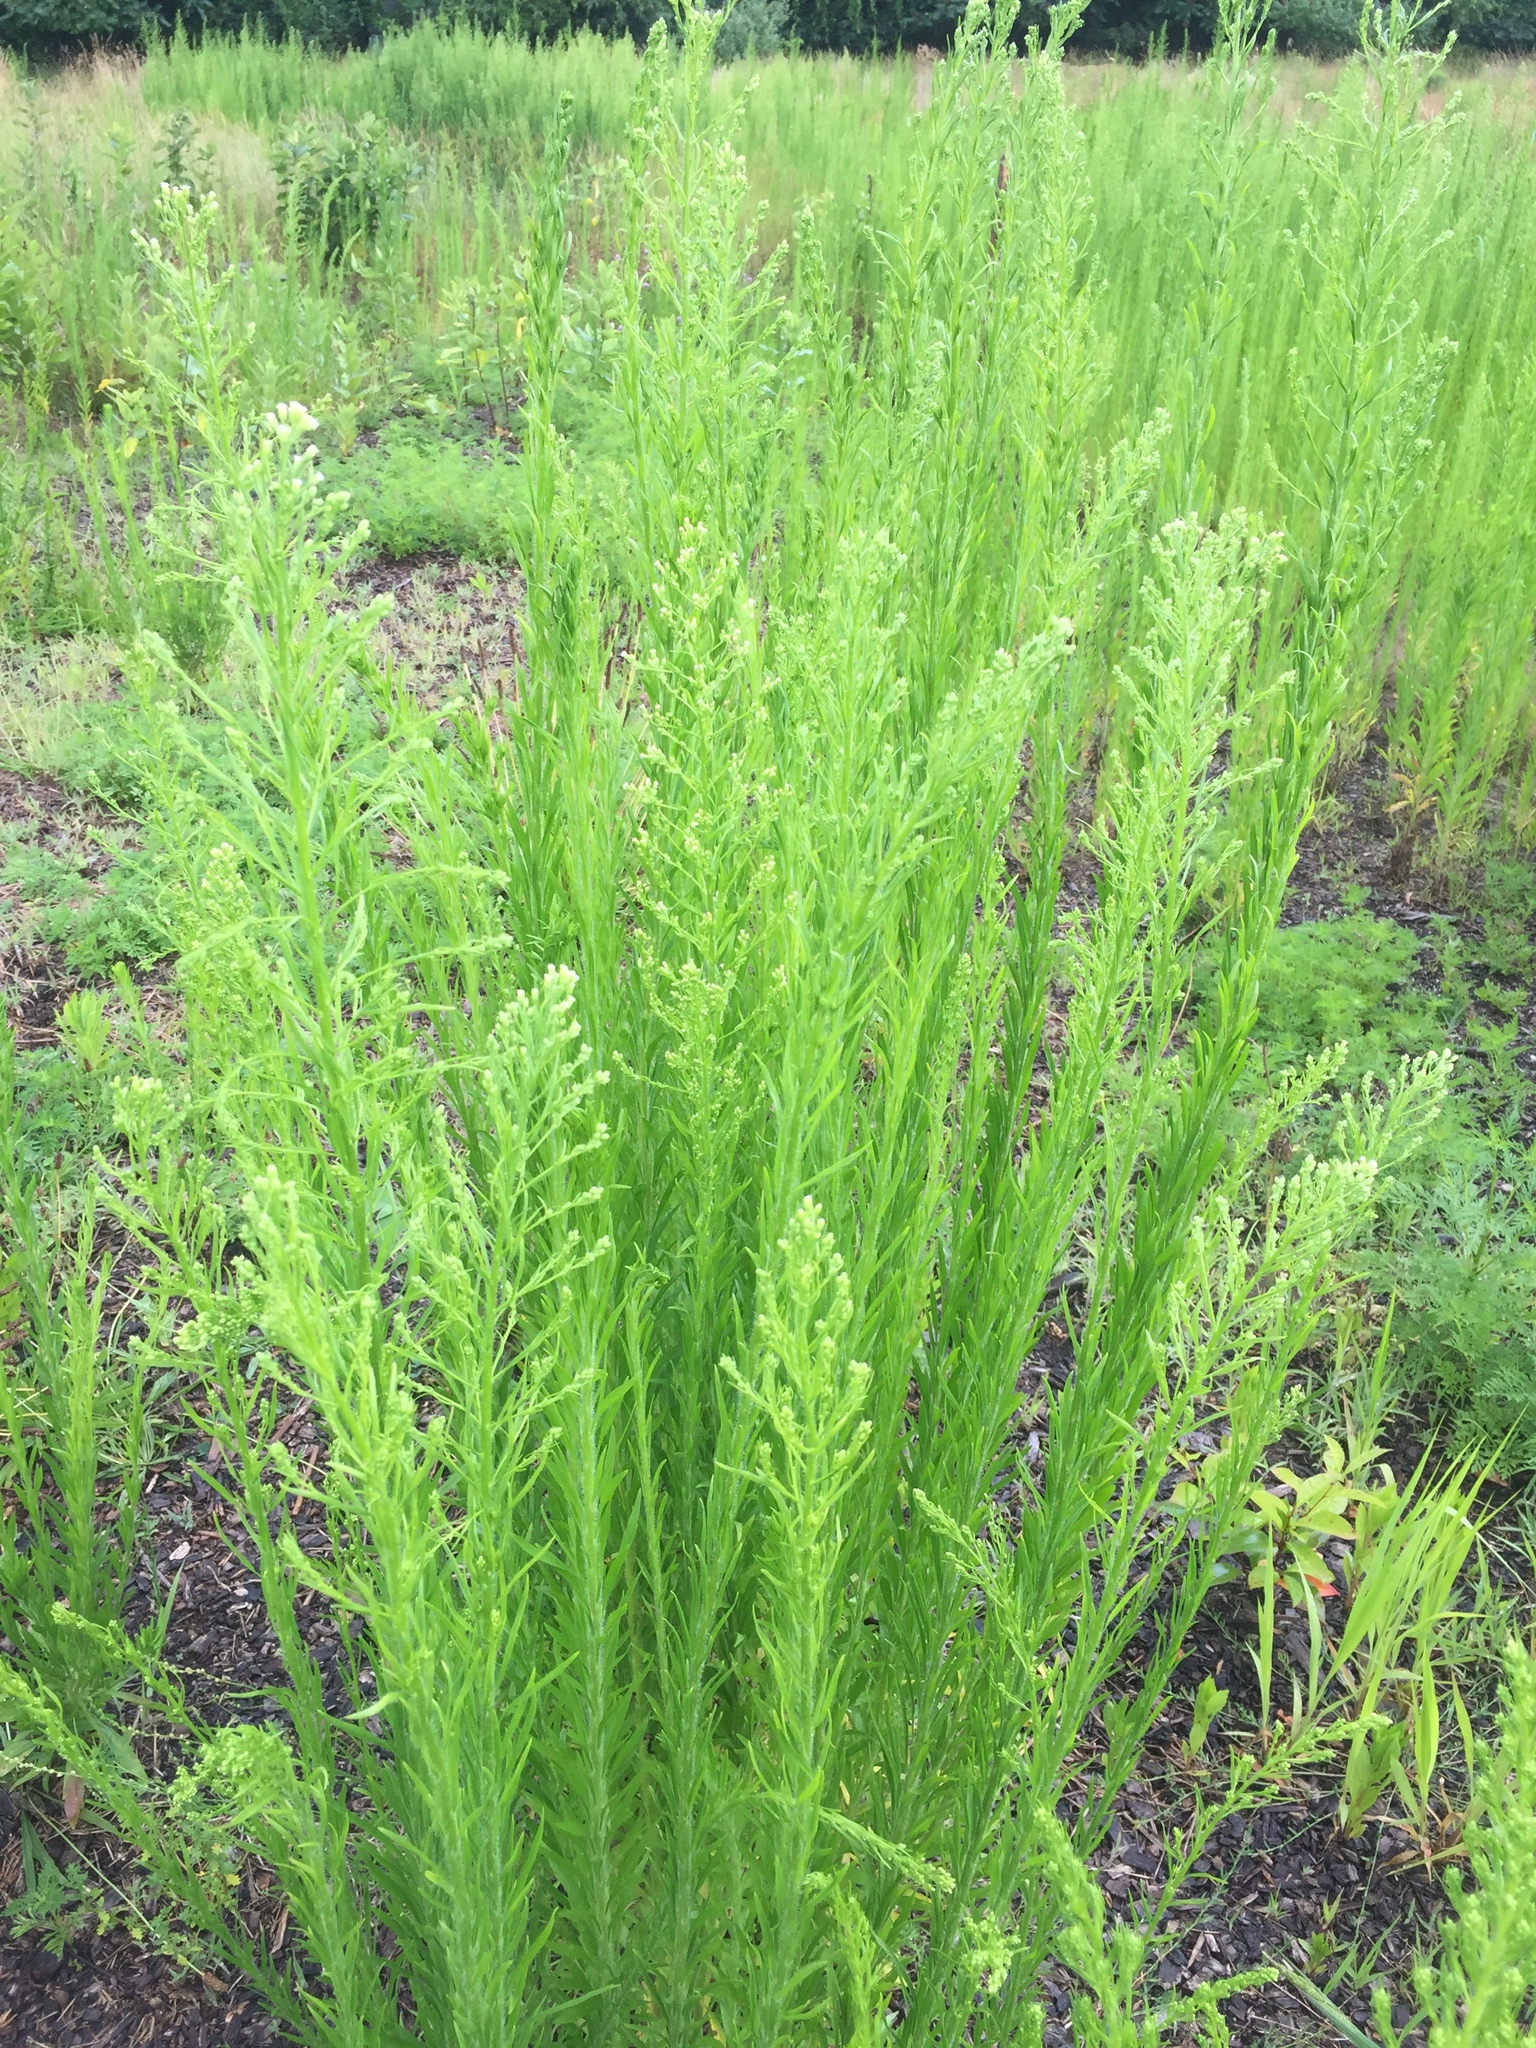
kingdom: Plantae
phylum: Tracheophyta
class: Magnoliopsida
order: Asterales
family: Asteraceae
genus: Erigeron
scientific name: Erigeron canadensis
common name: Canadian fleabane
